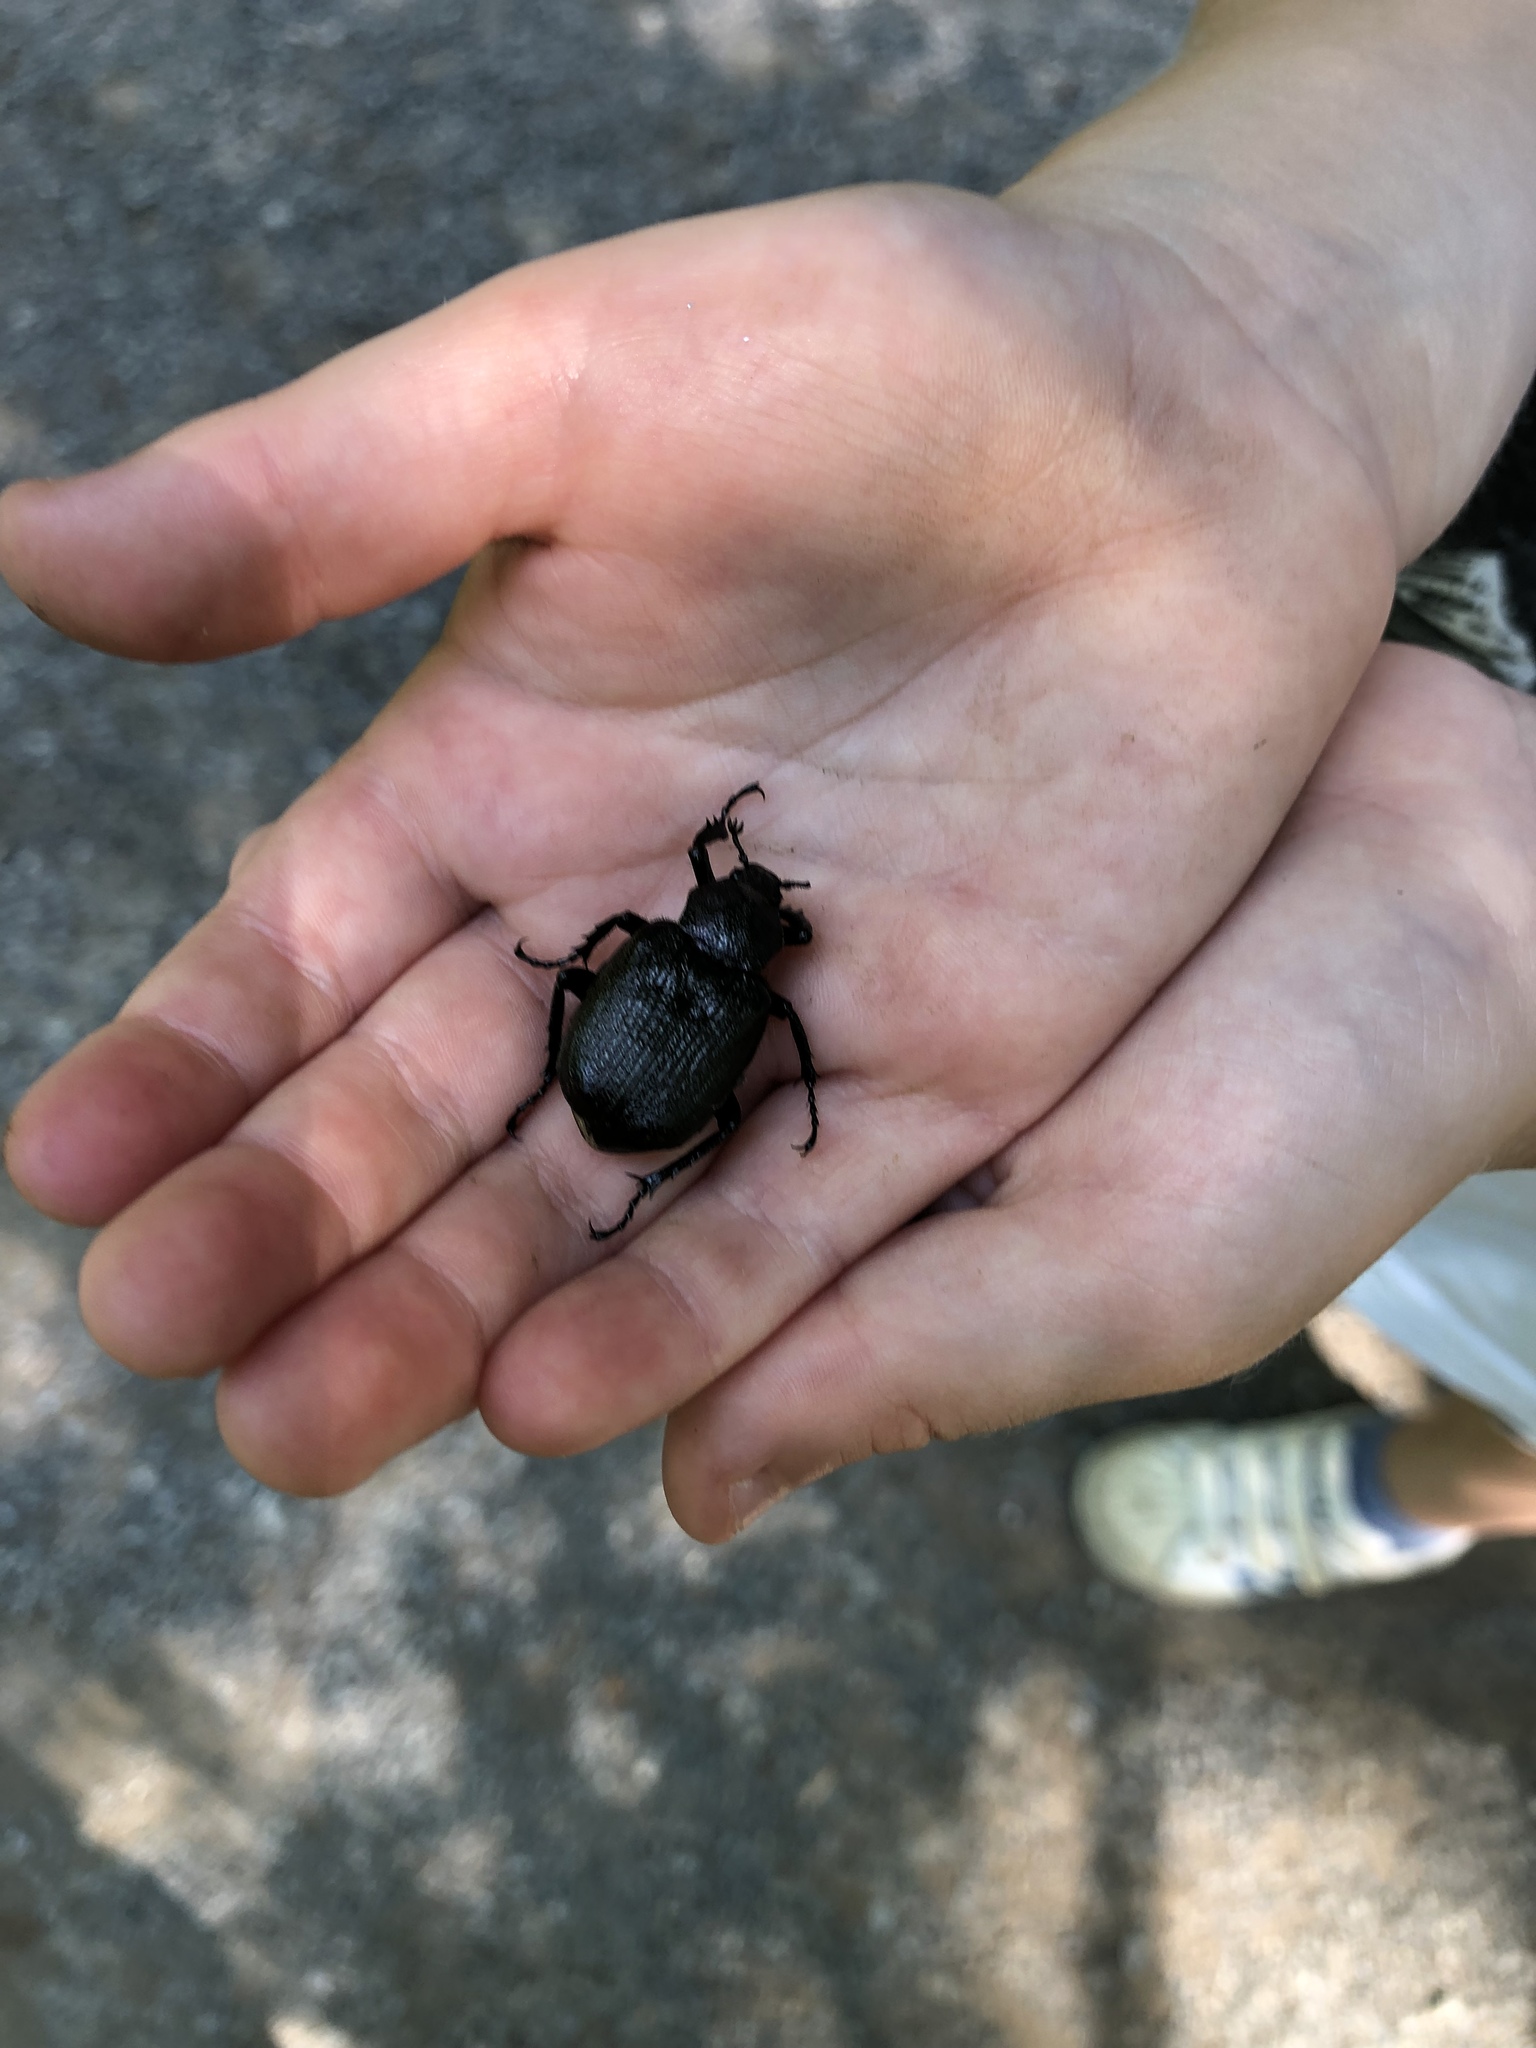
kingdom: Animalia
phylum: Arthropoda
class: Insecta
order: Coleoptera
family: Scarabaeidae
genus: Osmoderma
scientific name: Osmoderma scabra
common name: Rough hermit beetle
